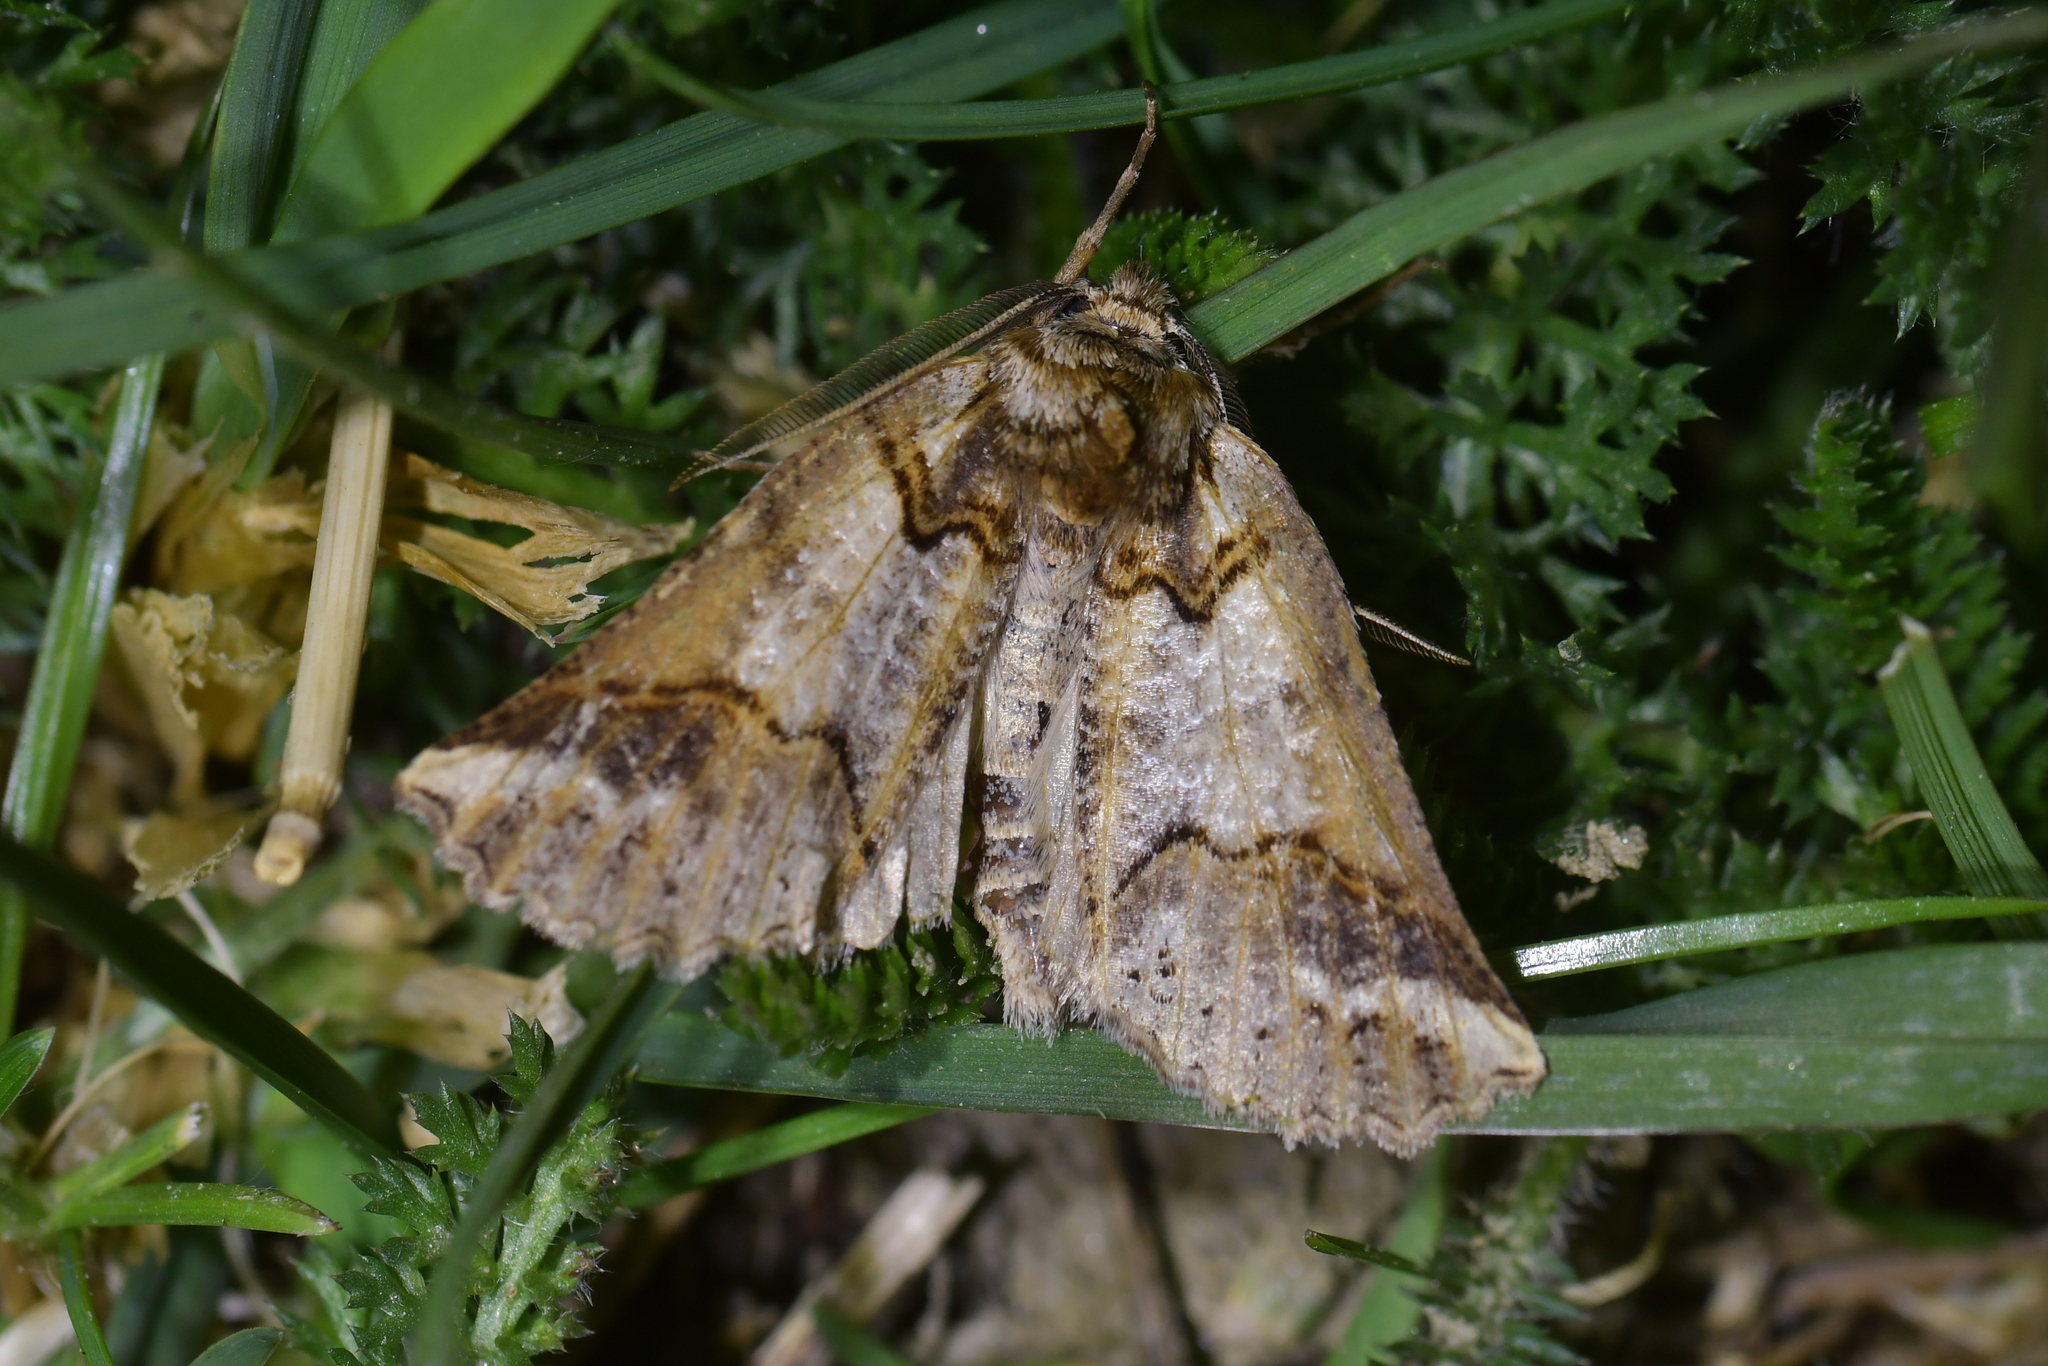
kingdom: Animalia
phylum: Arthropoda
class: Insecta
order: Lepidoptera
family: Geometridae
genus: Declana
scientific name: Declana
